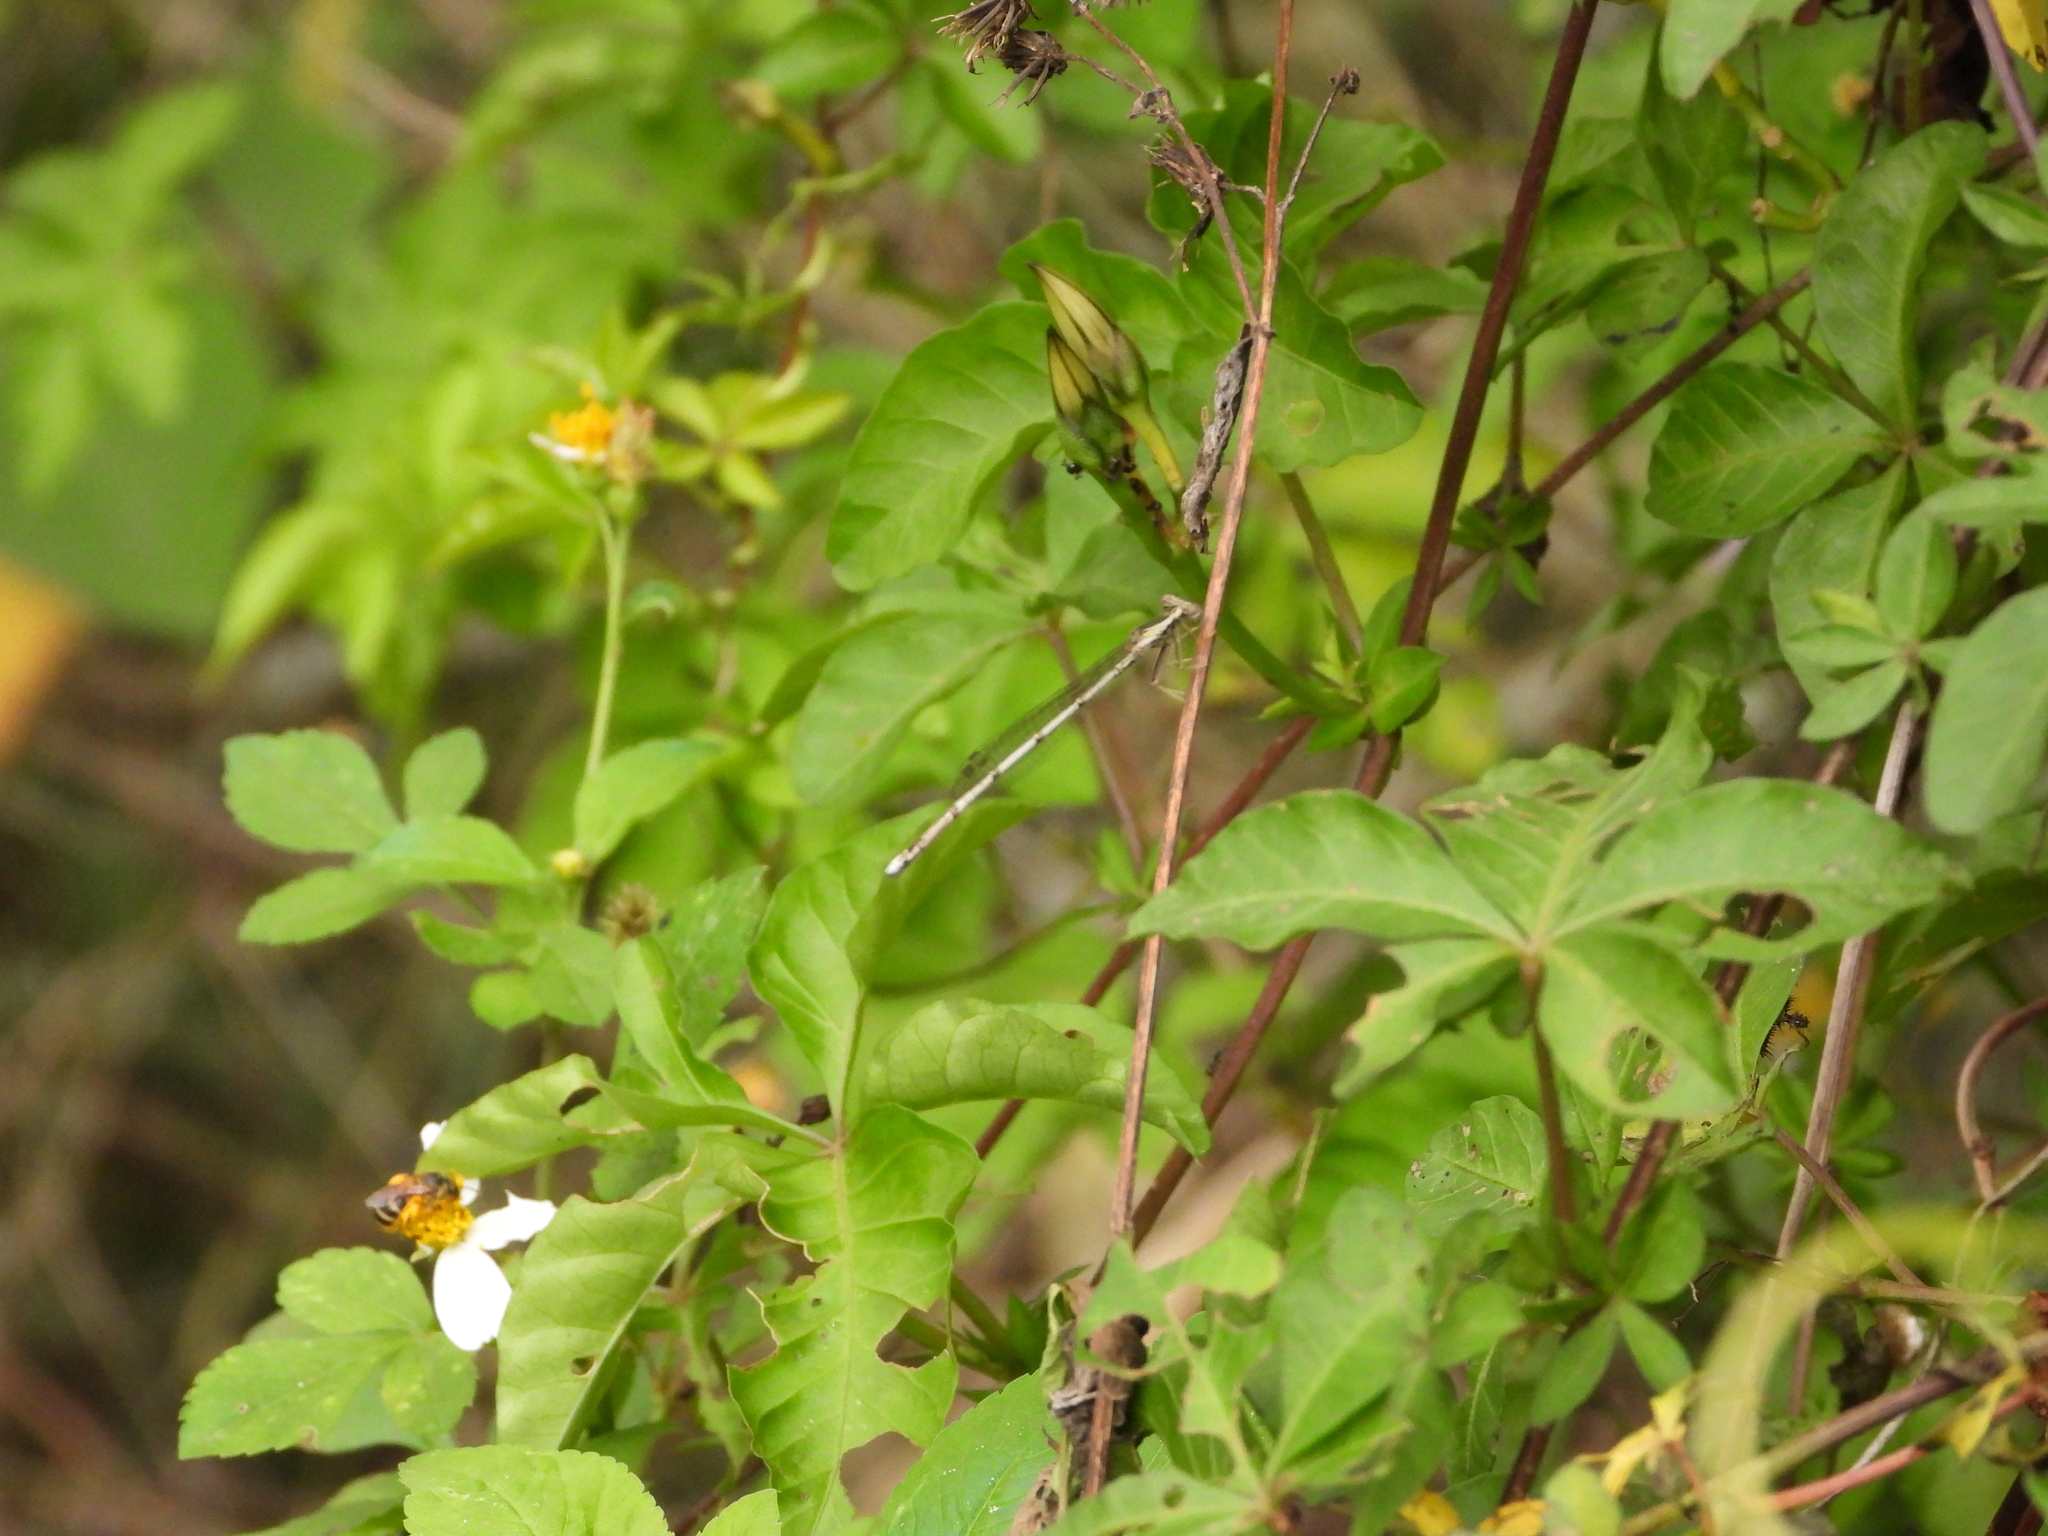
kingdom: Animalia
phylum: Arthropoda
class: Insecta
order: Odonata
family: Platycnemididae
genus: Copera
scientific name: Copera marginipes
